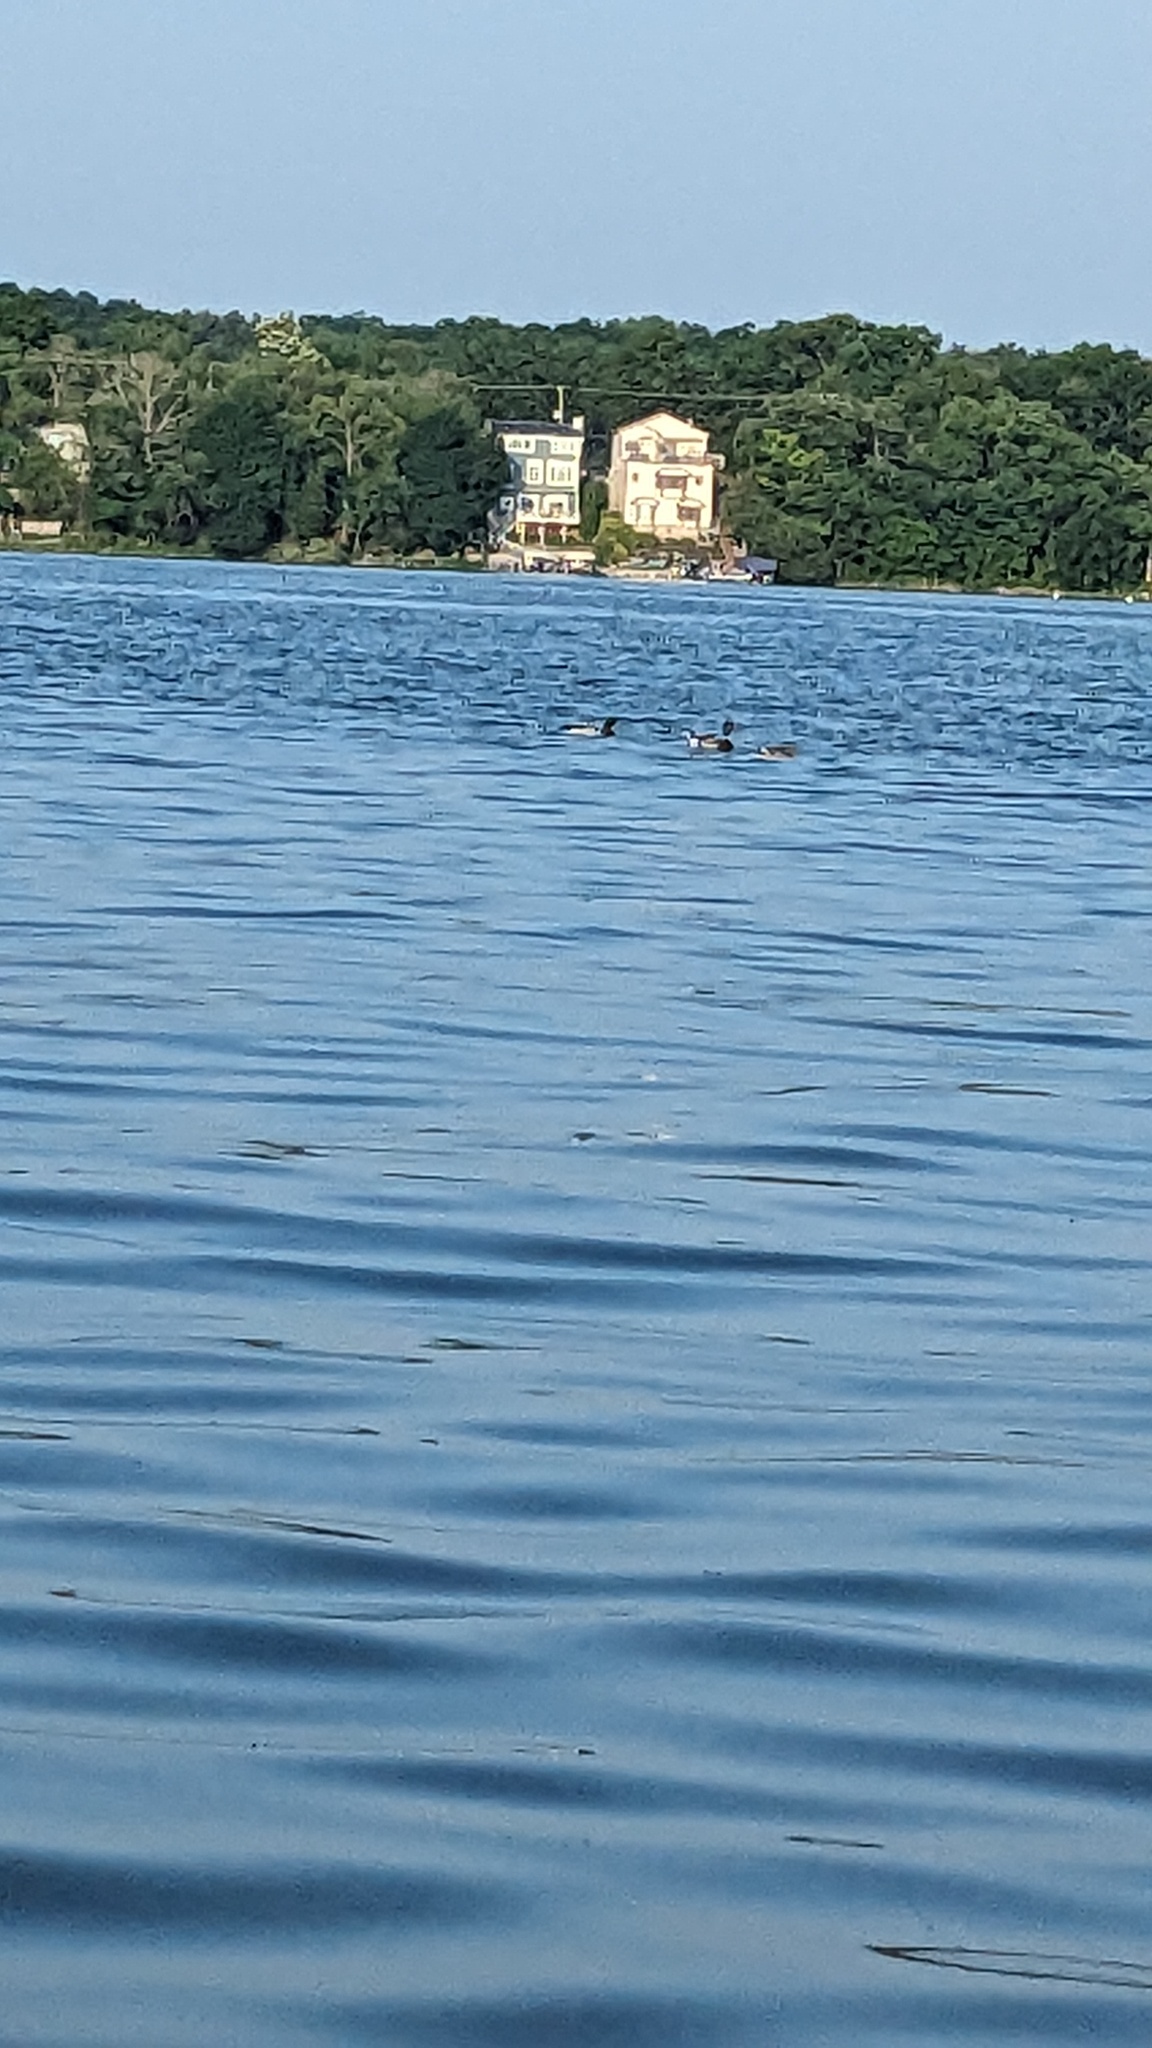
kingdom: Animalia
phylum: Chordata
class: Aves
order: Anseriformes
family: Anatidae
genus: Anas
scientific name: Anas platyrhynchos
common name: Mallard
